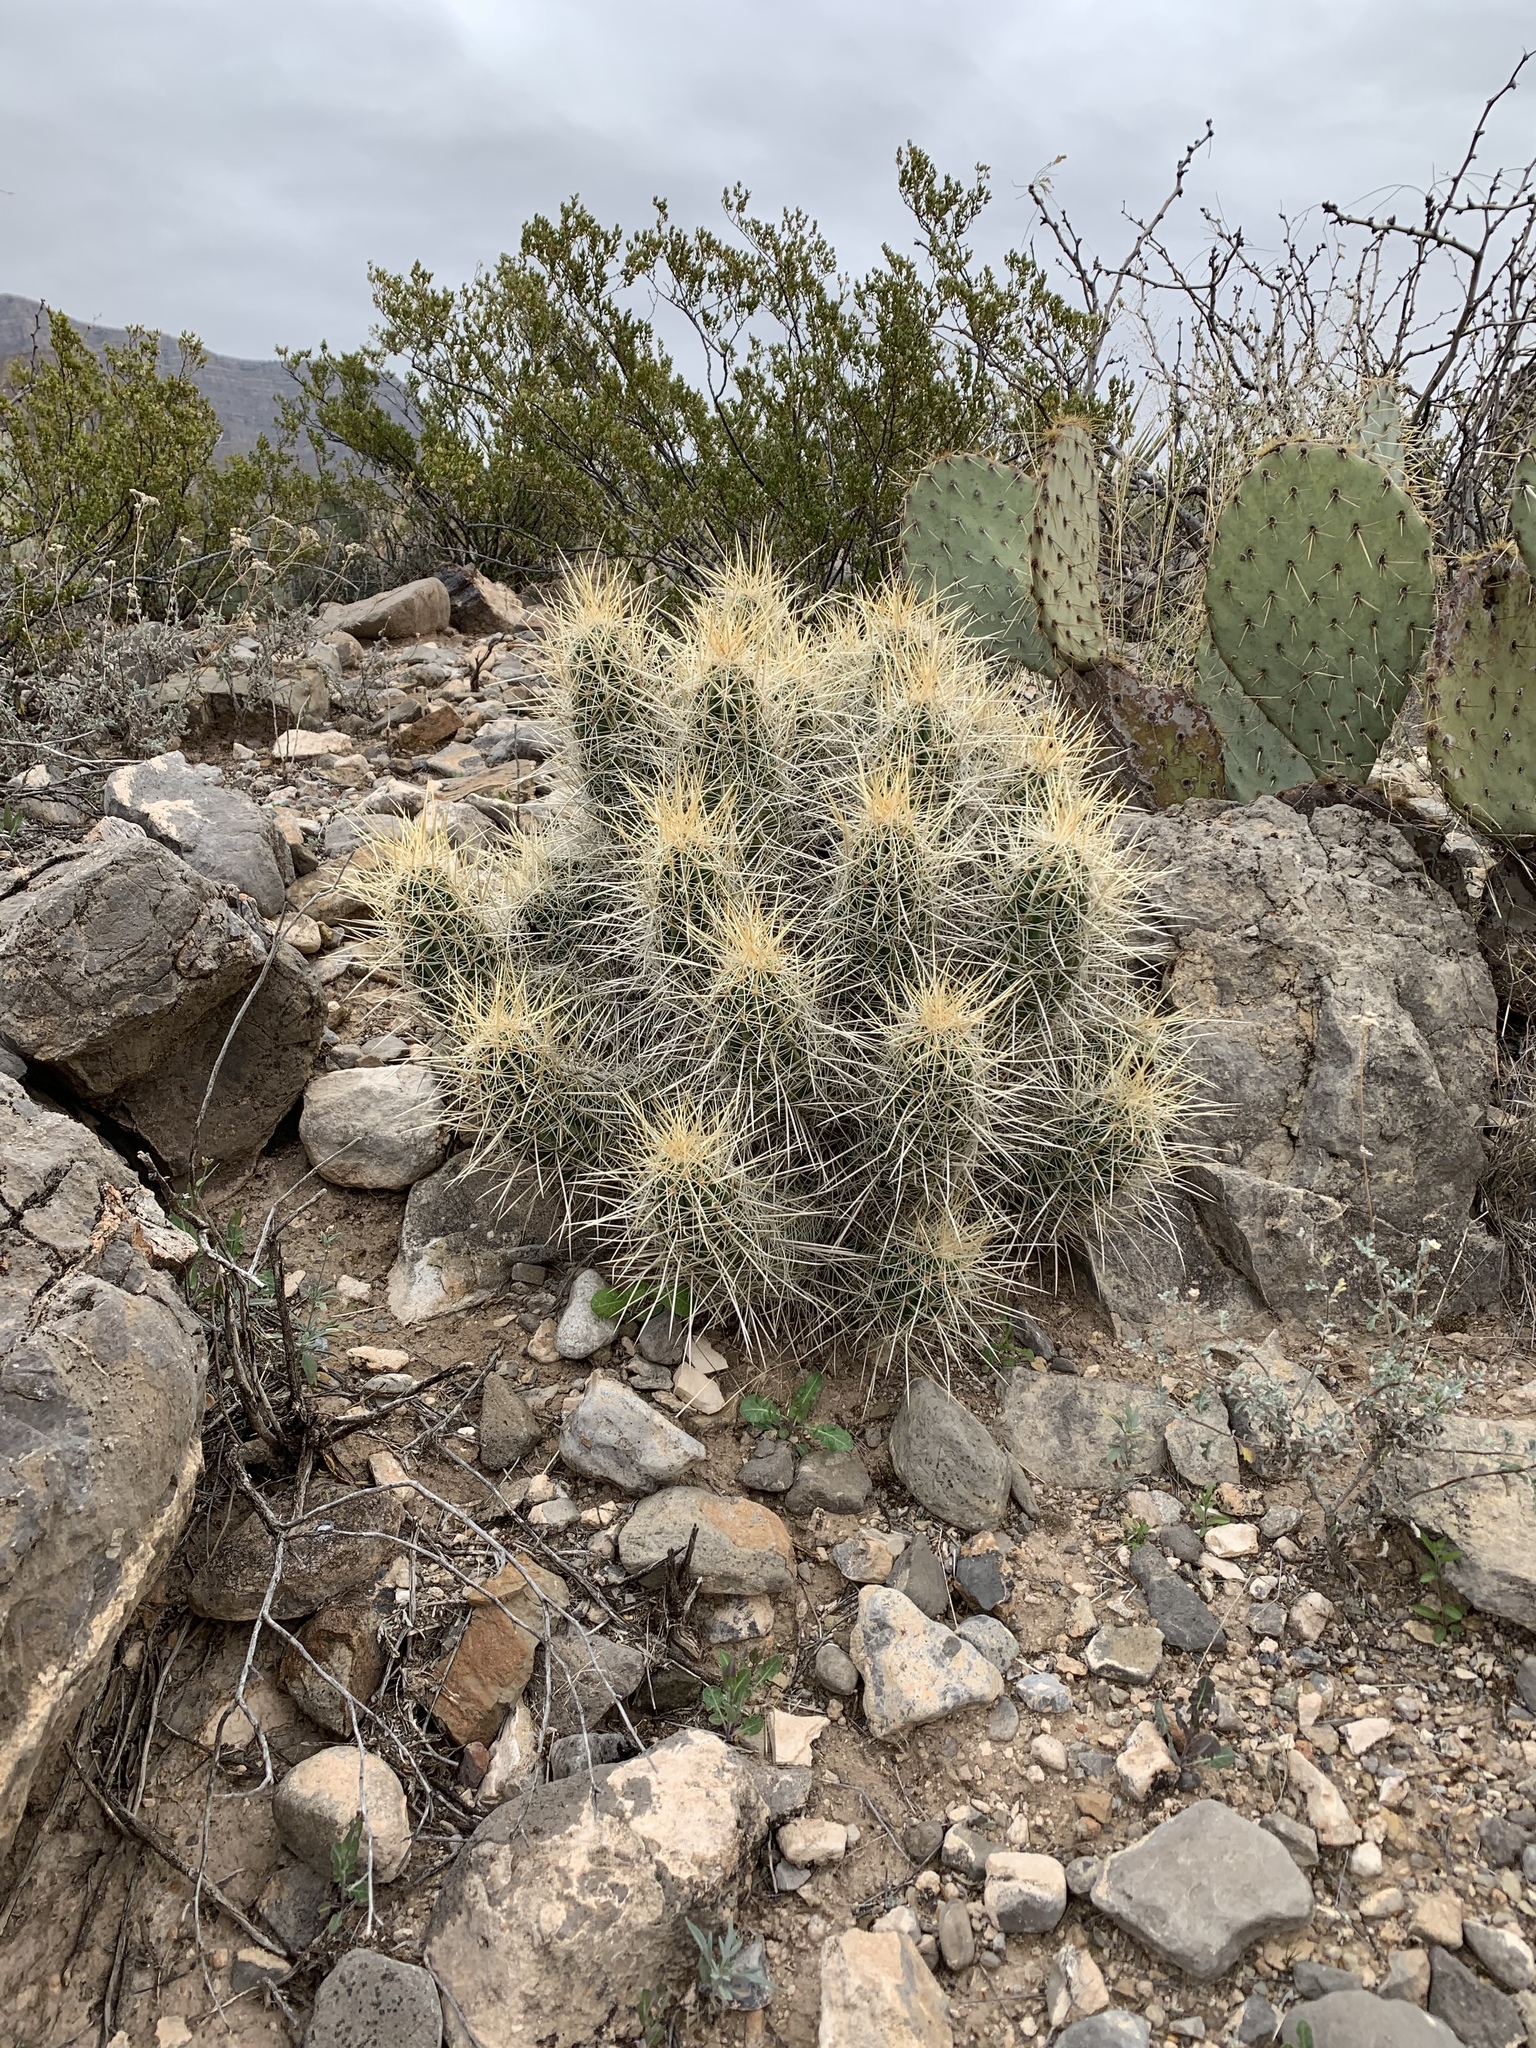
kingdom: Plantae
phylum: Tracheophyta
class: Magnoliopsida
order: Caryophyllales
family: Cactaceae
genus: Echinocereus
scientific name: Echinocereus stramineus
